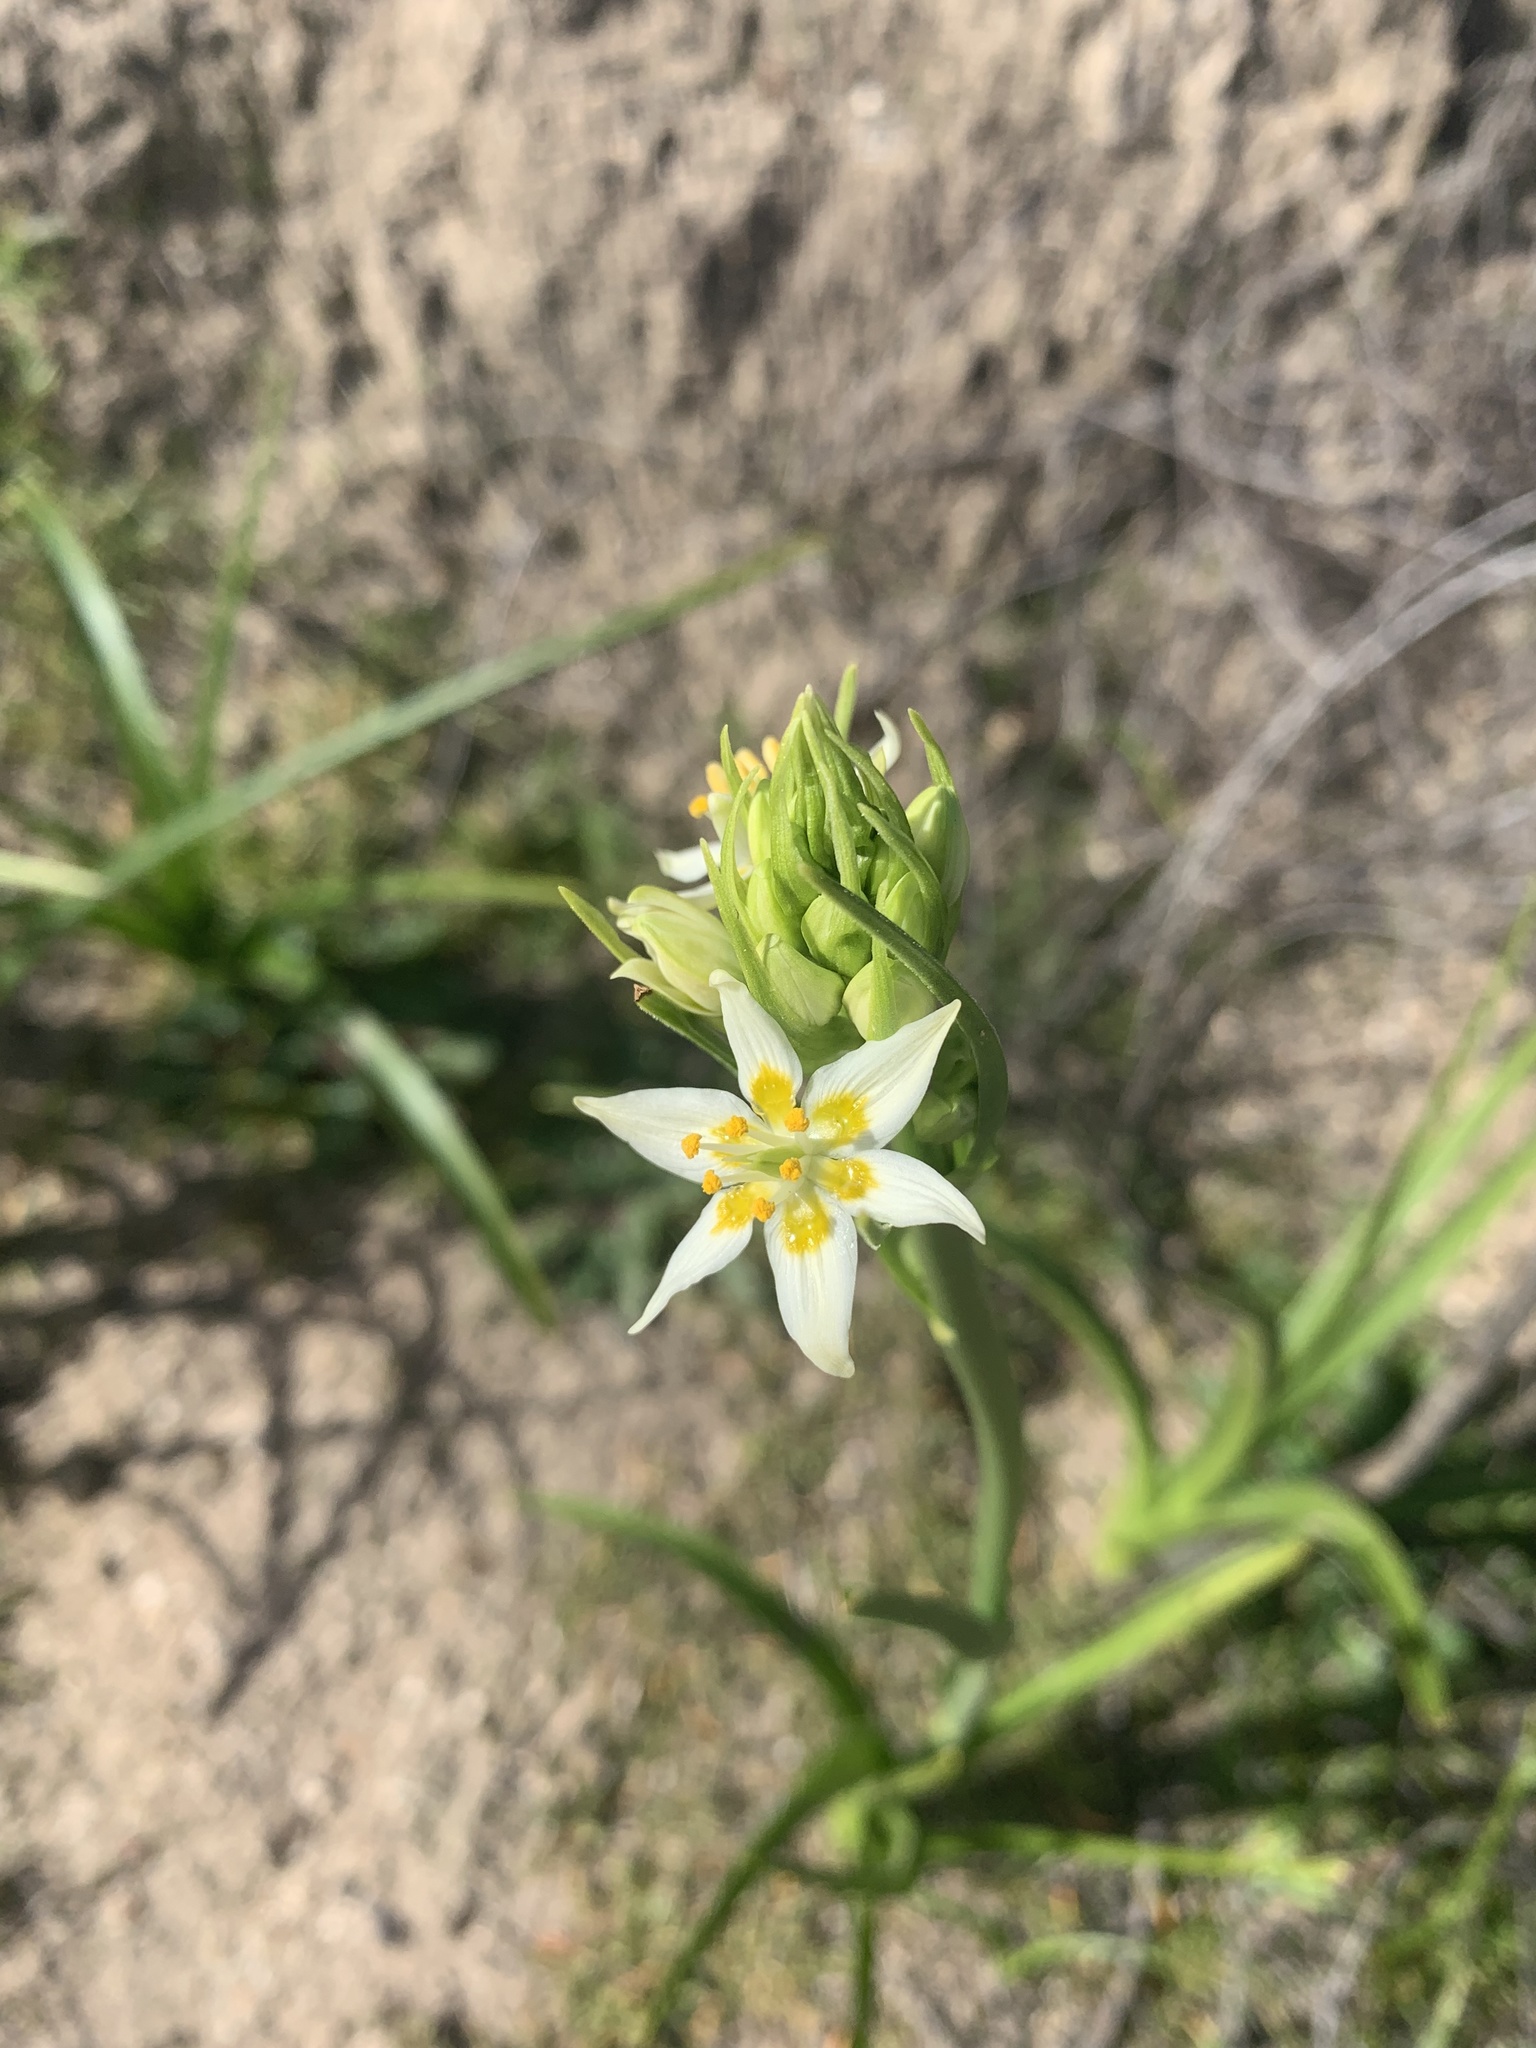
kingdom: Plantae
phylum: Tracheophyta
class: Liliopsida
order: Liliales
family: Melanthiaceae
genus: Toxicoscordion
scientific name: Toxicoscordion fremontii
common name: Fremont's death camas
